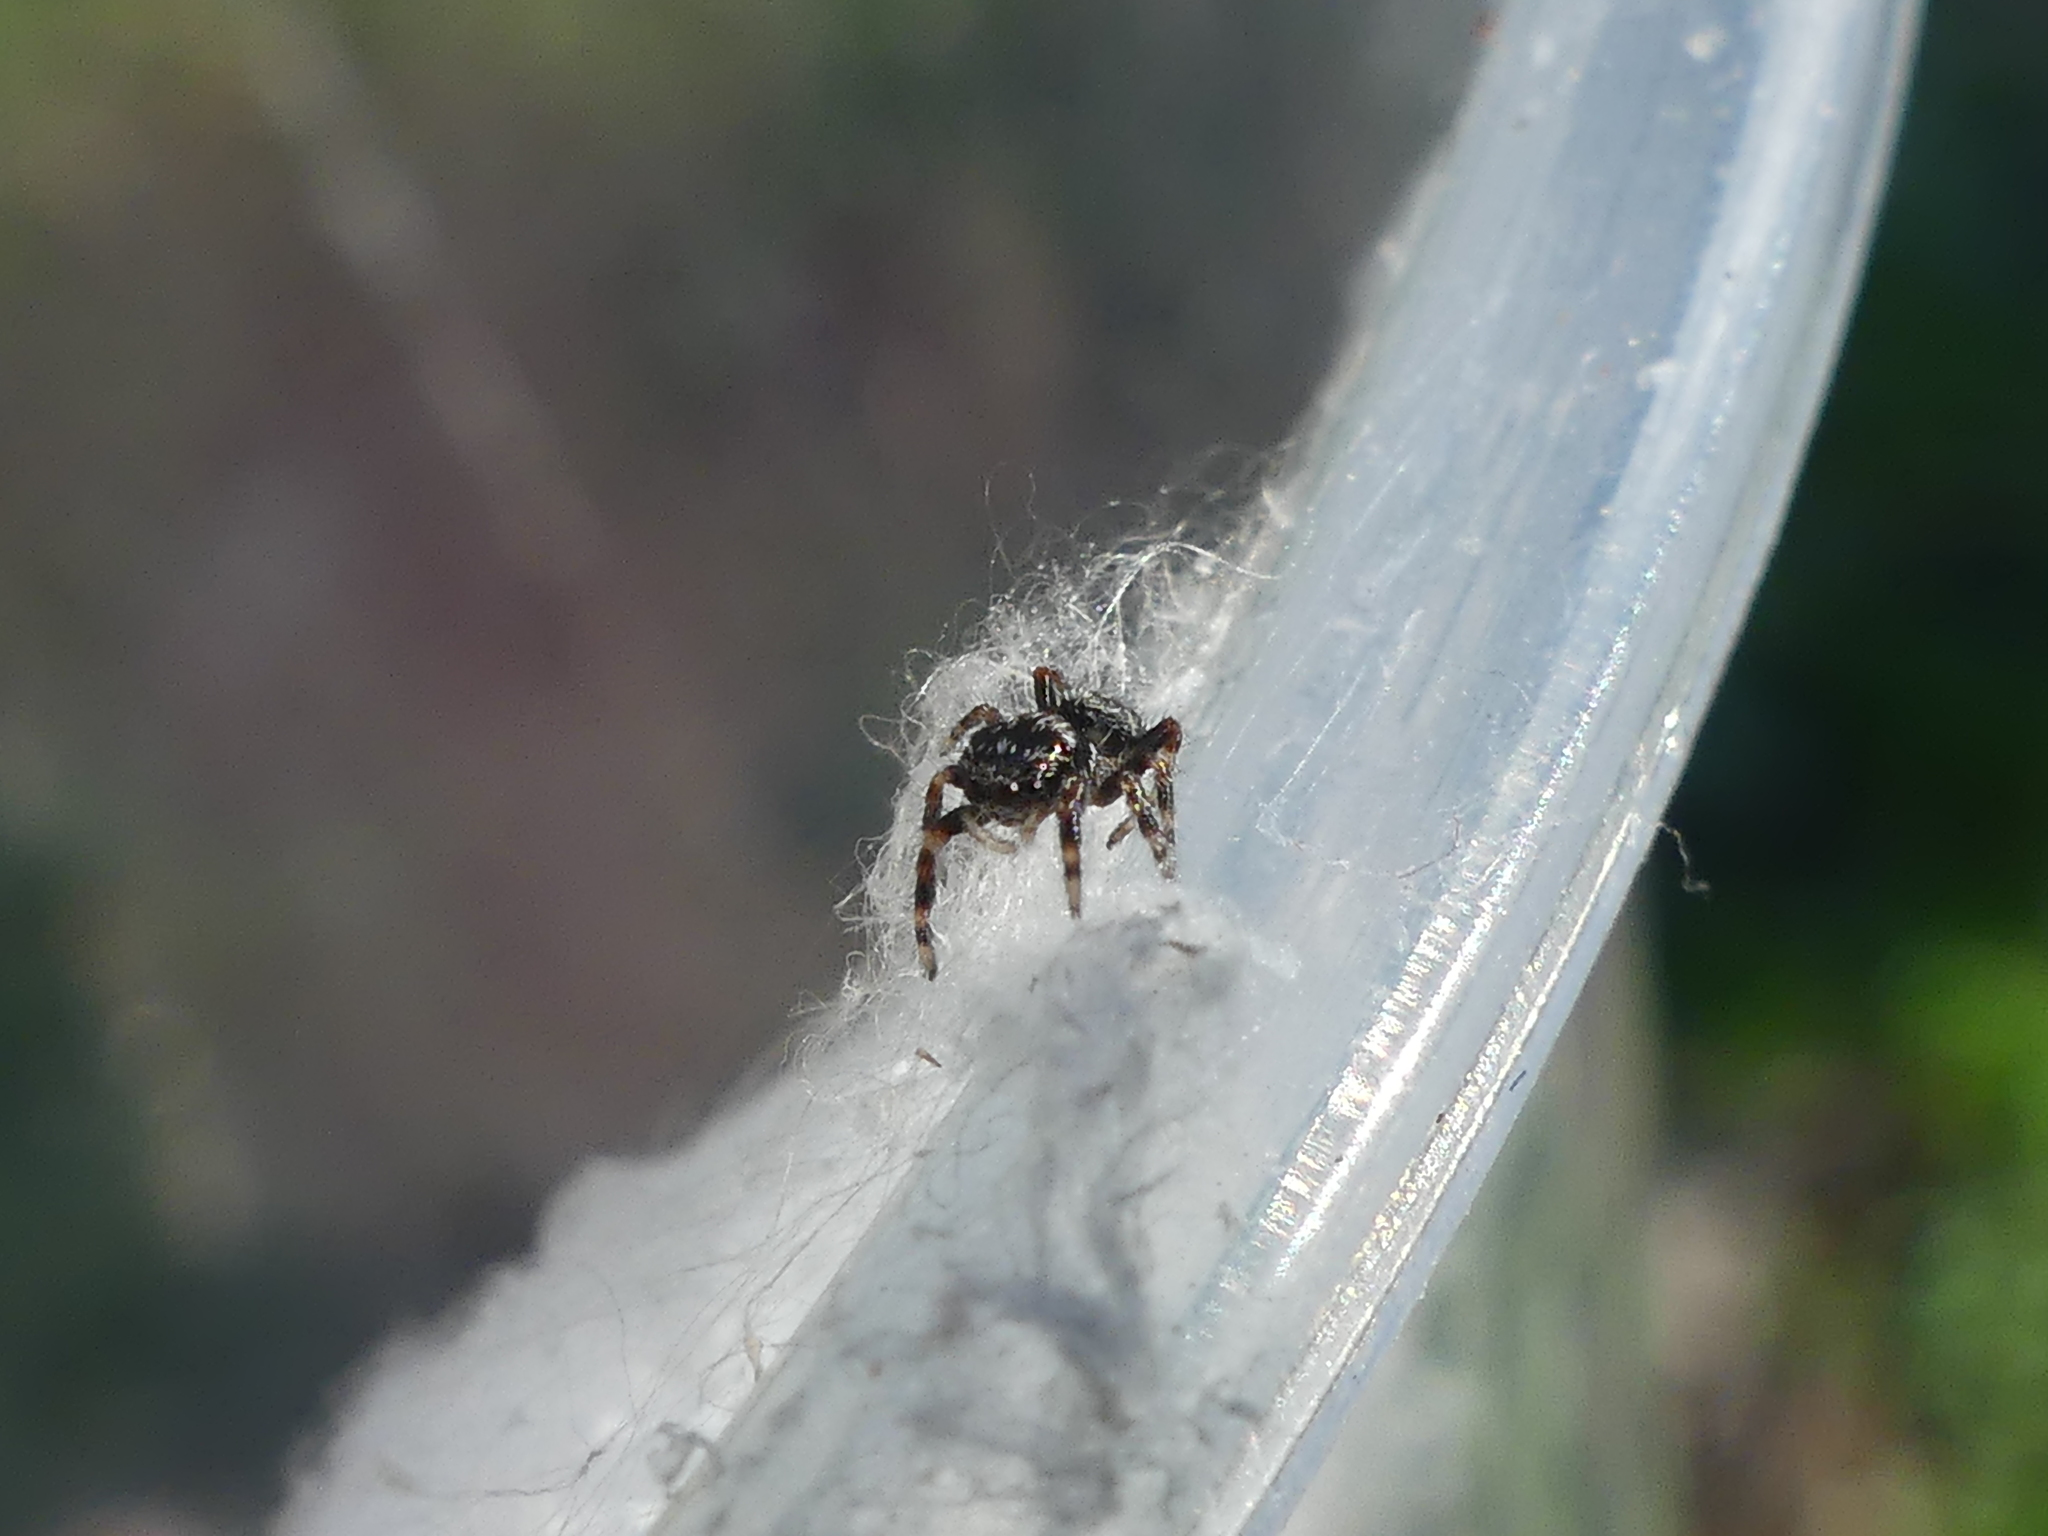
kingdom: Animalia
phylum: Arthropoda
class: Arachnida
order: Araneae
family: Salticidae
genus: Phidippus
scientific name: Phidippus putnami
